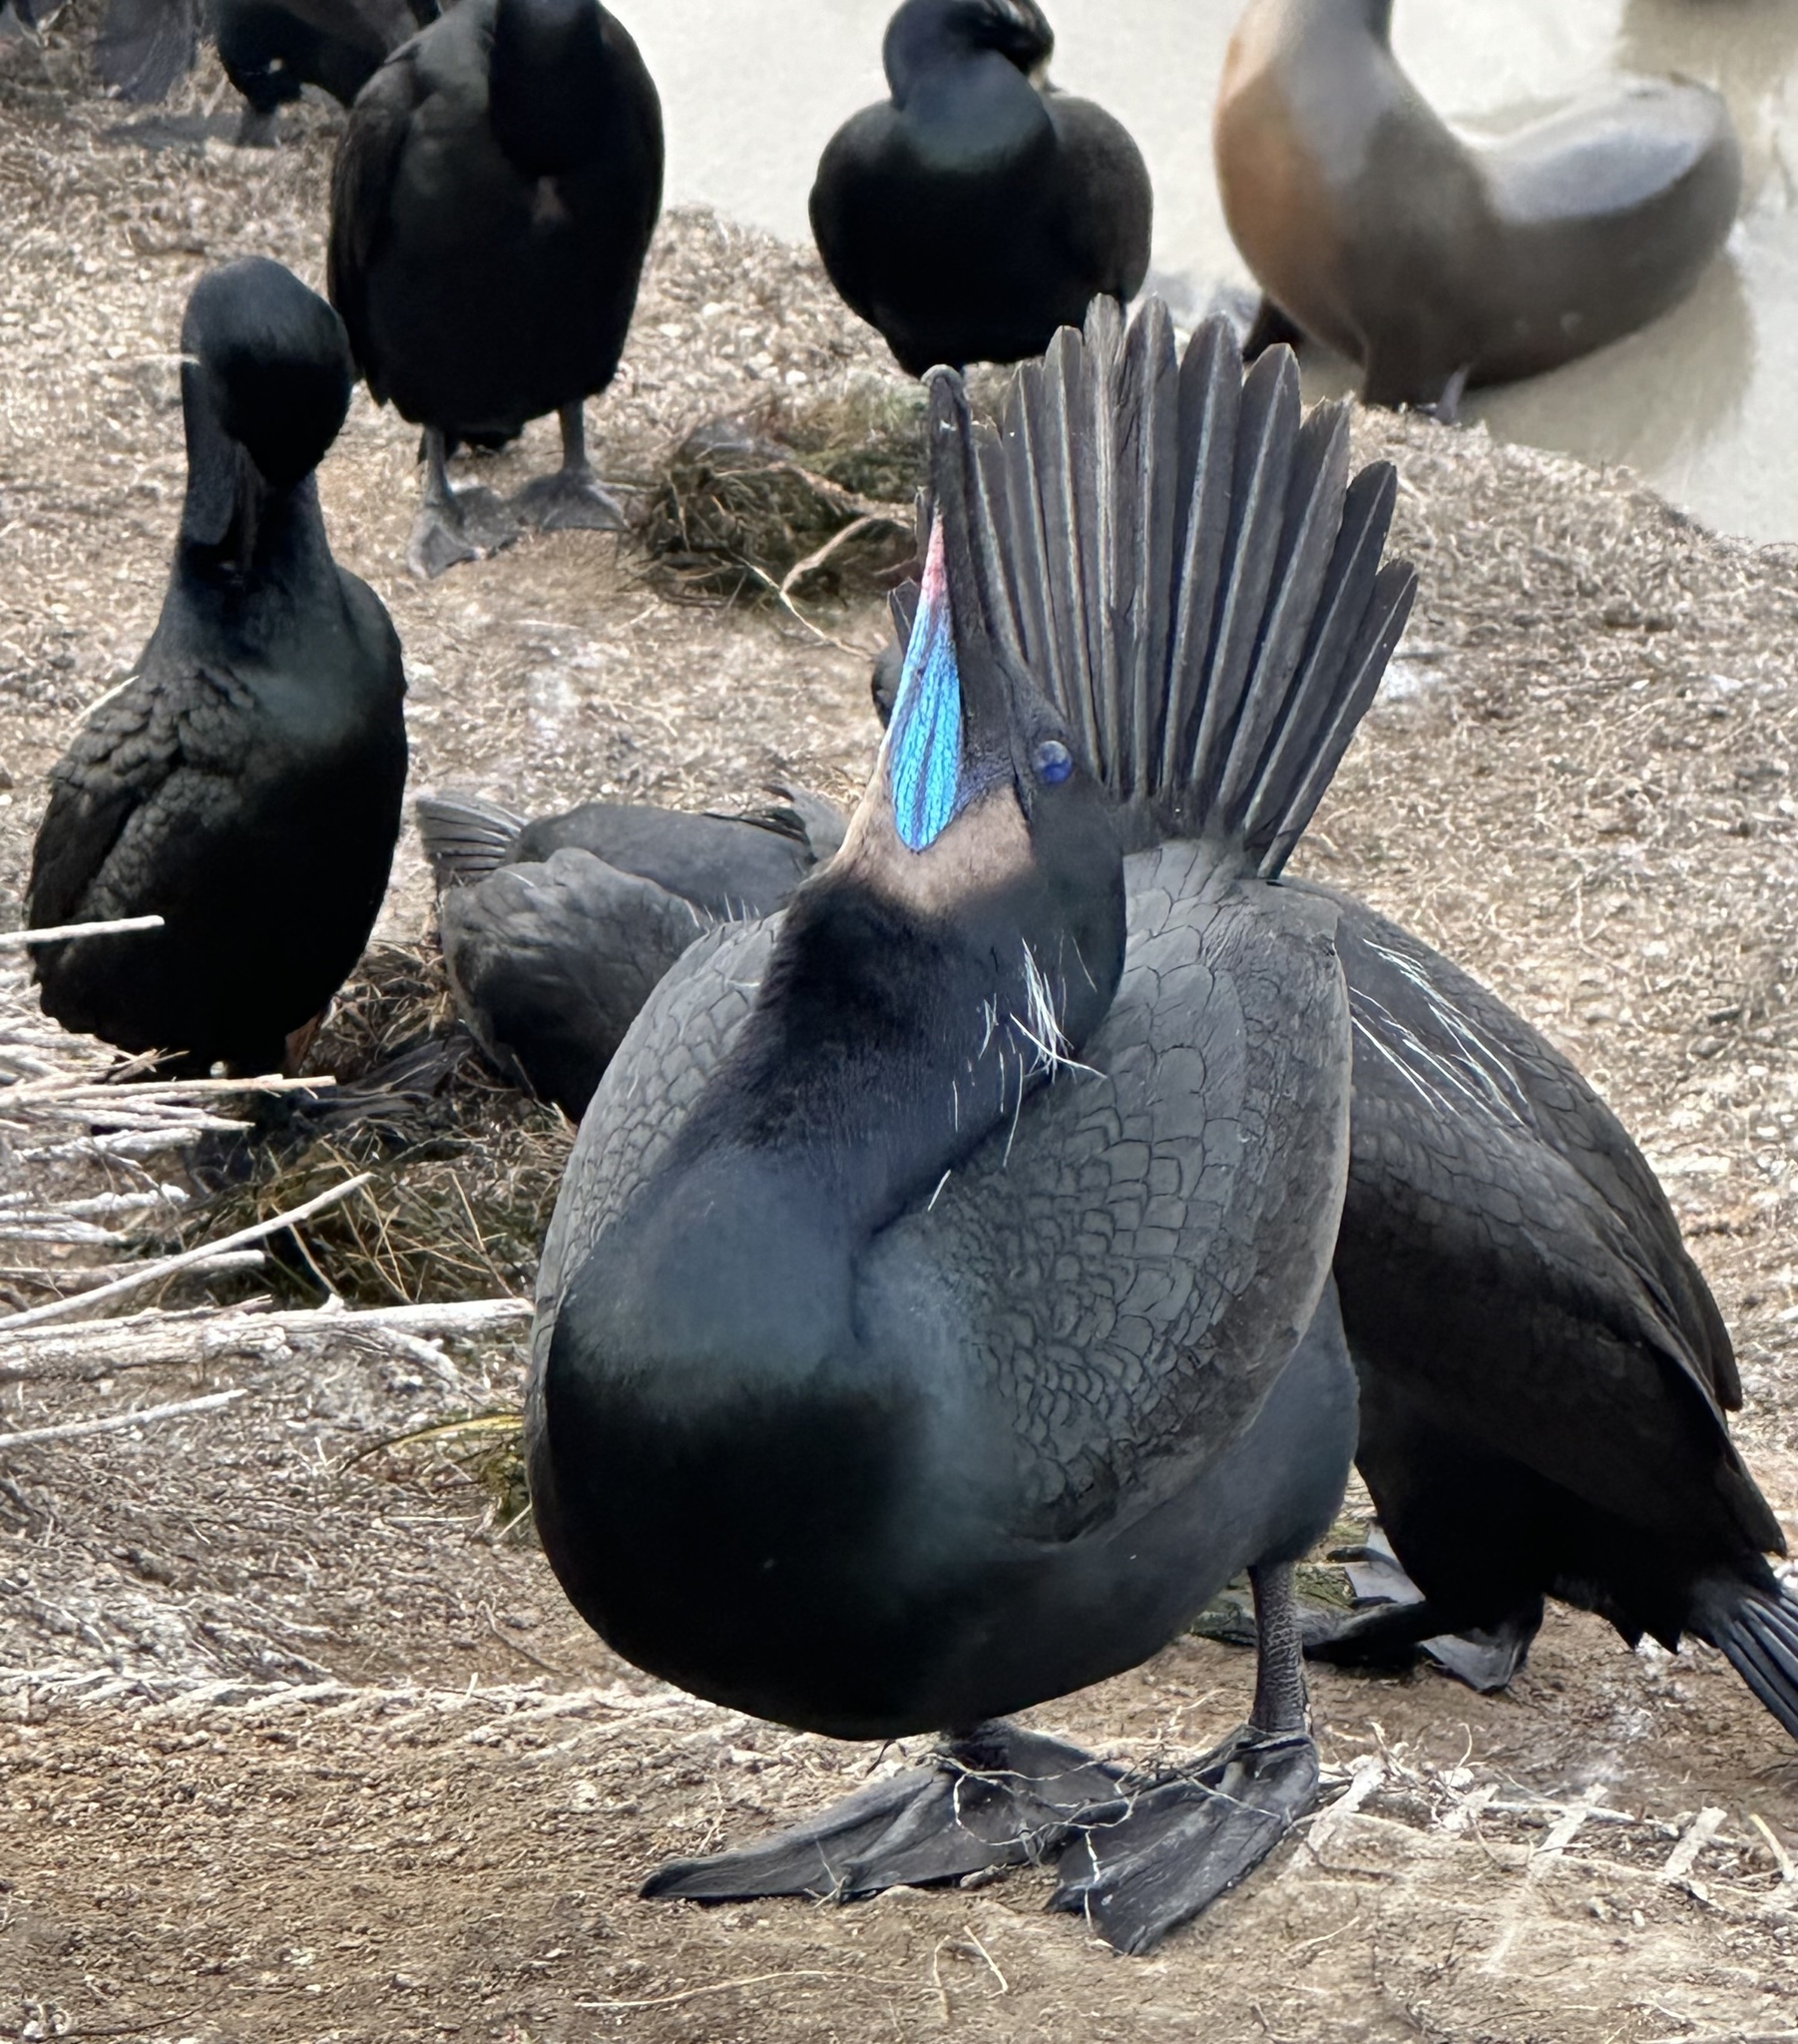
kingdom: Animalia
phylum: Chordata
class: Aves
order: Suliformes
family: Phalacrocoracidae
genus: Urile
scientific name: Urile penicillatus
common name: Brandt's cormorant
